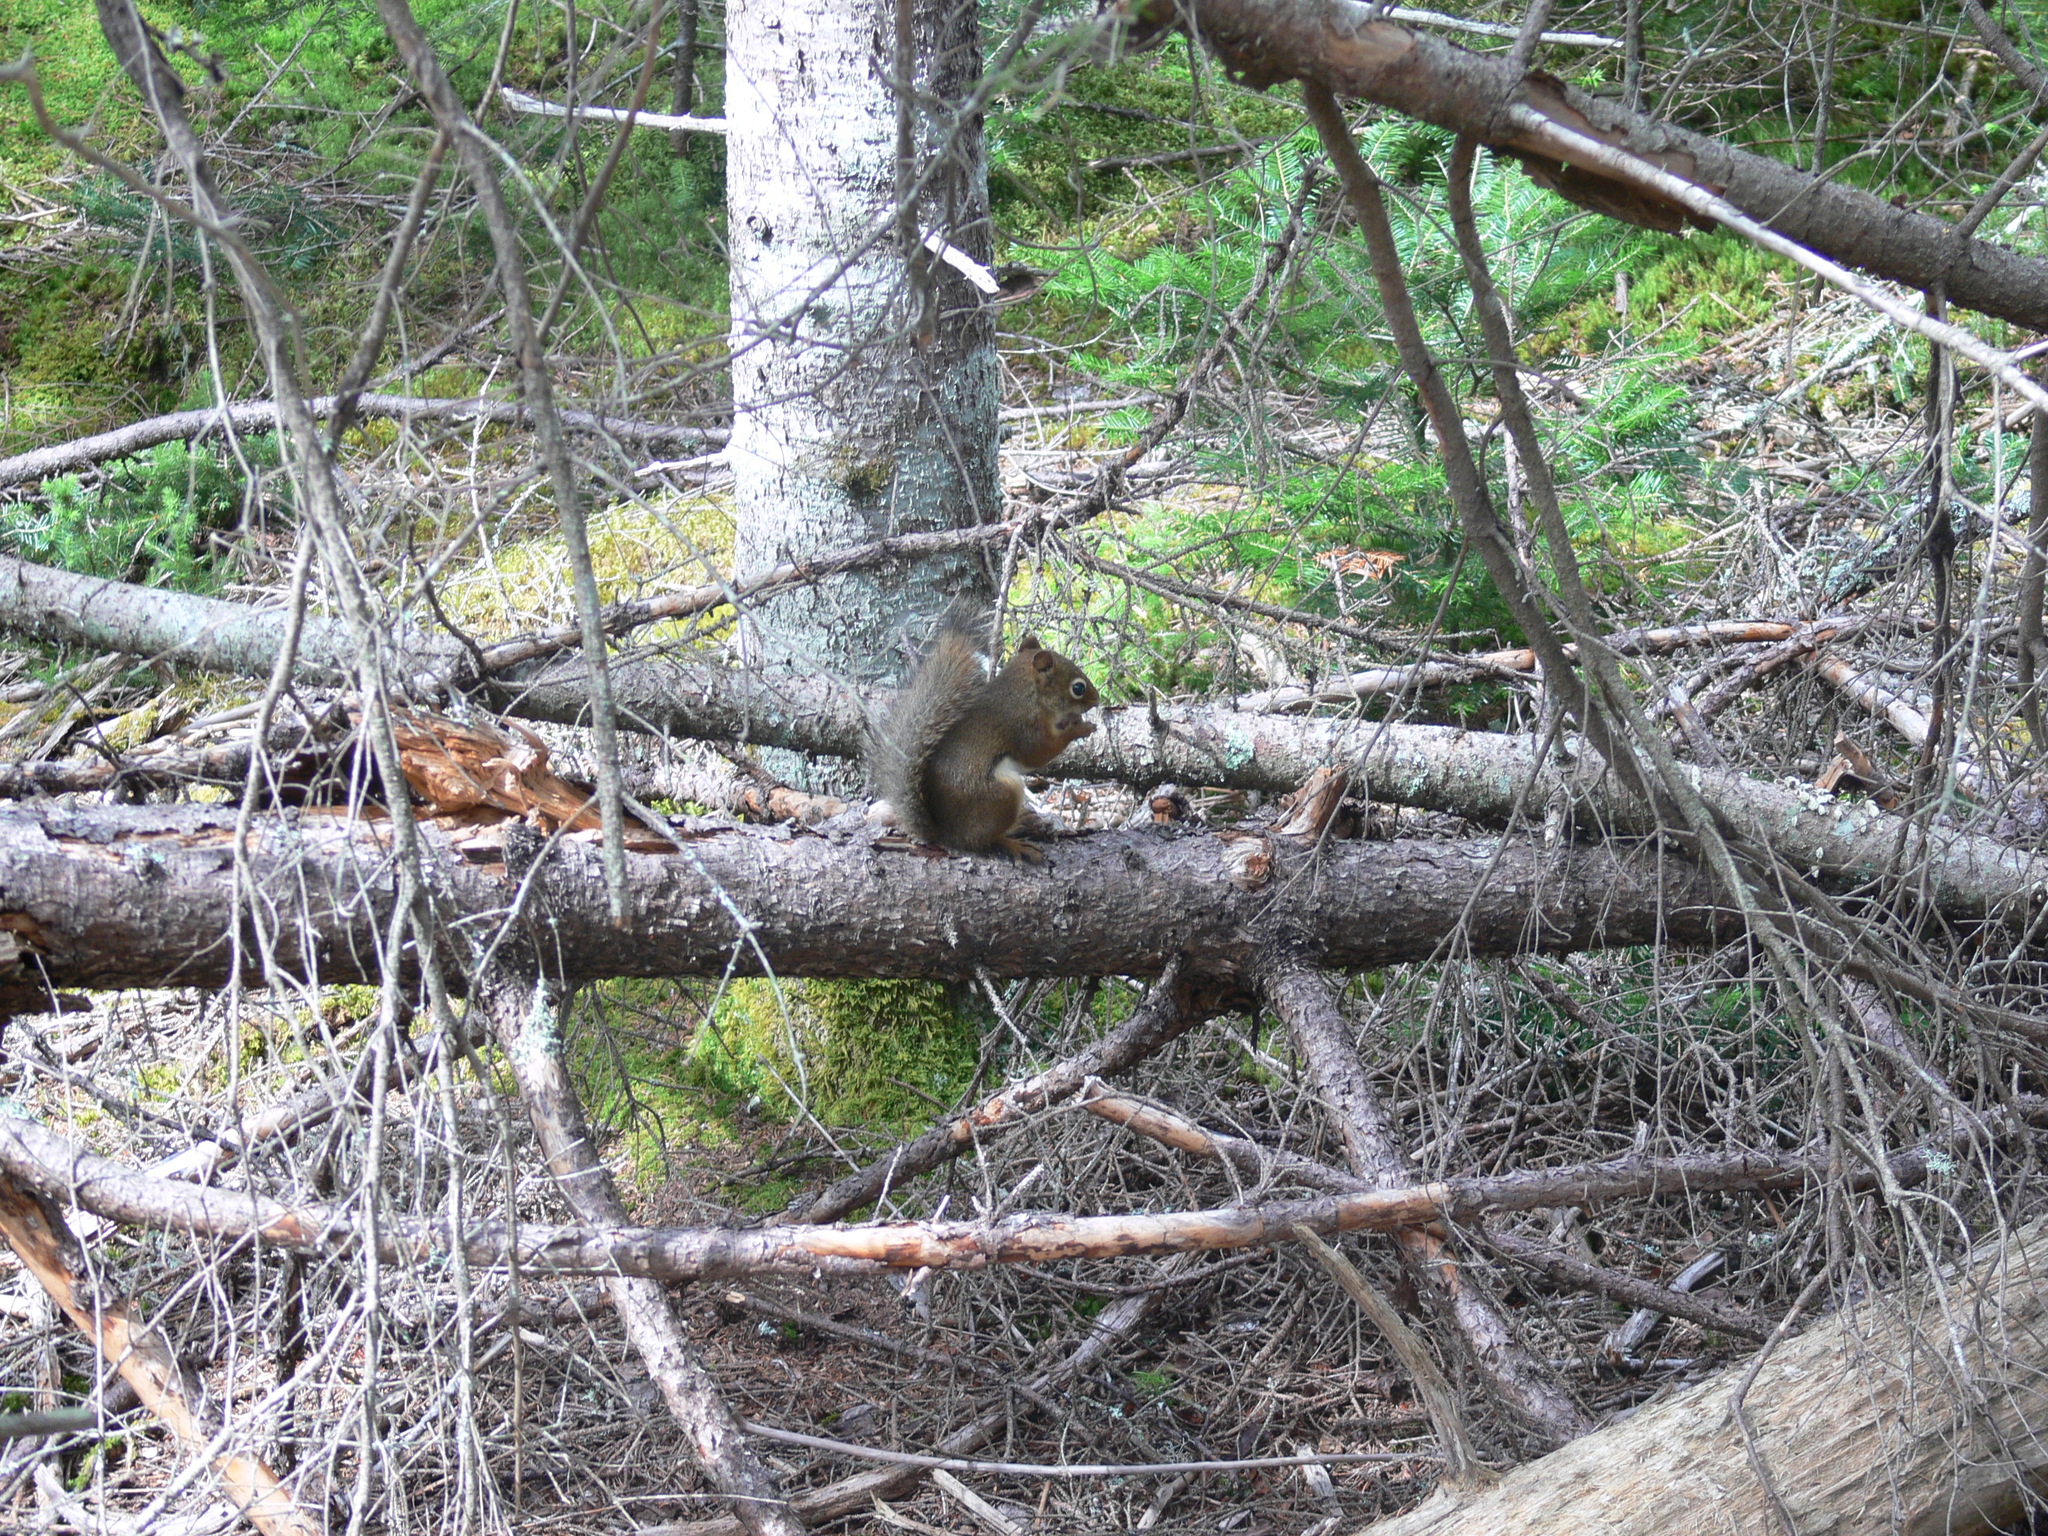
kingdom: Animalia
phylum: Chordata
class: Mammalia
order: Rodentia
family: Sciuridae
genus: Tamiasciurus
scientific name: Tamiasciurus hudsonicus
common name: Red squirrel
